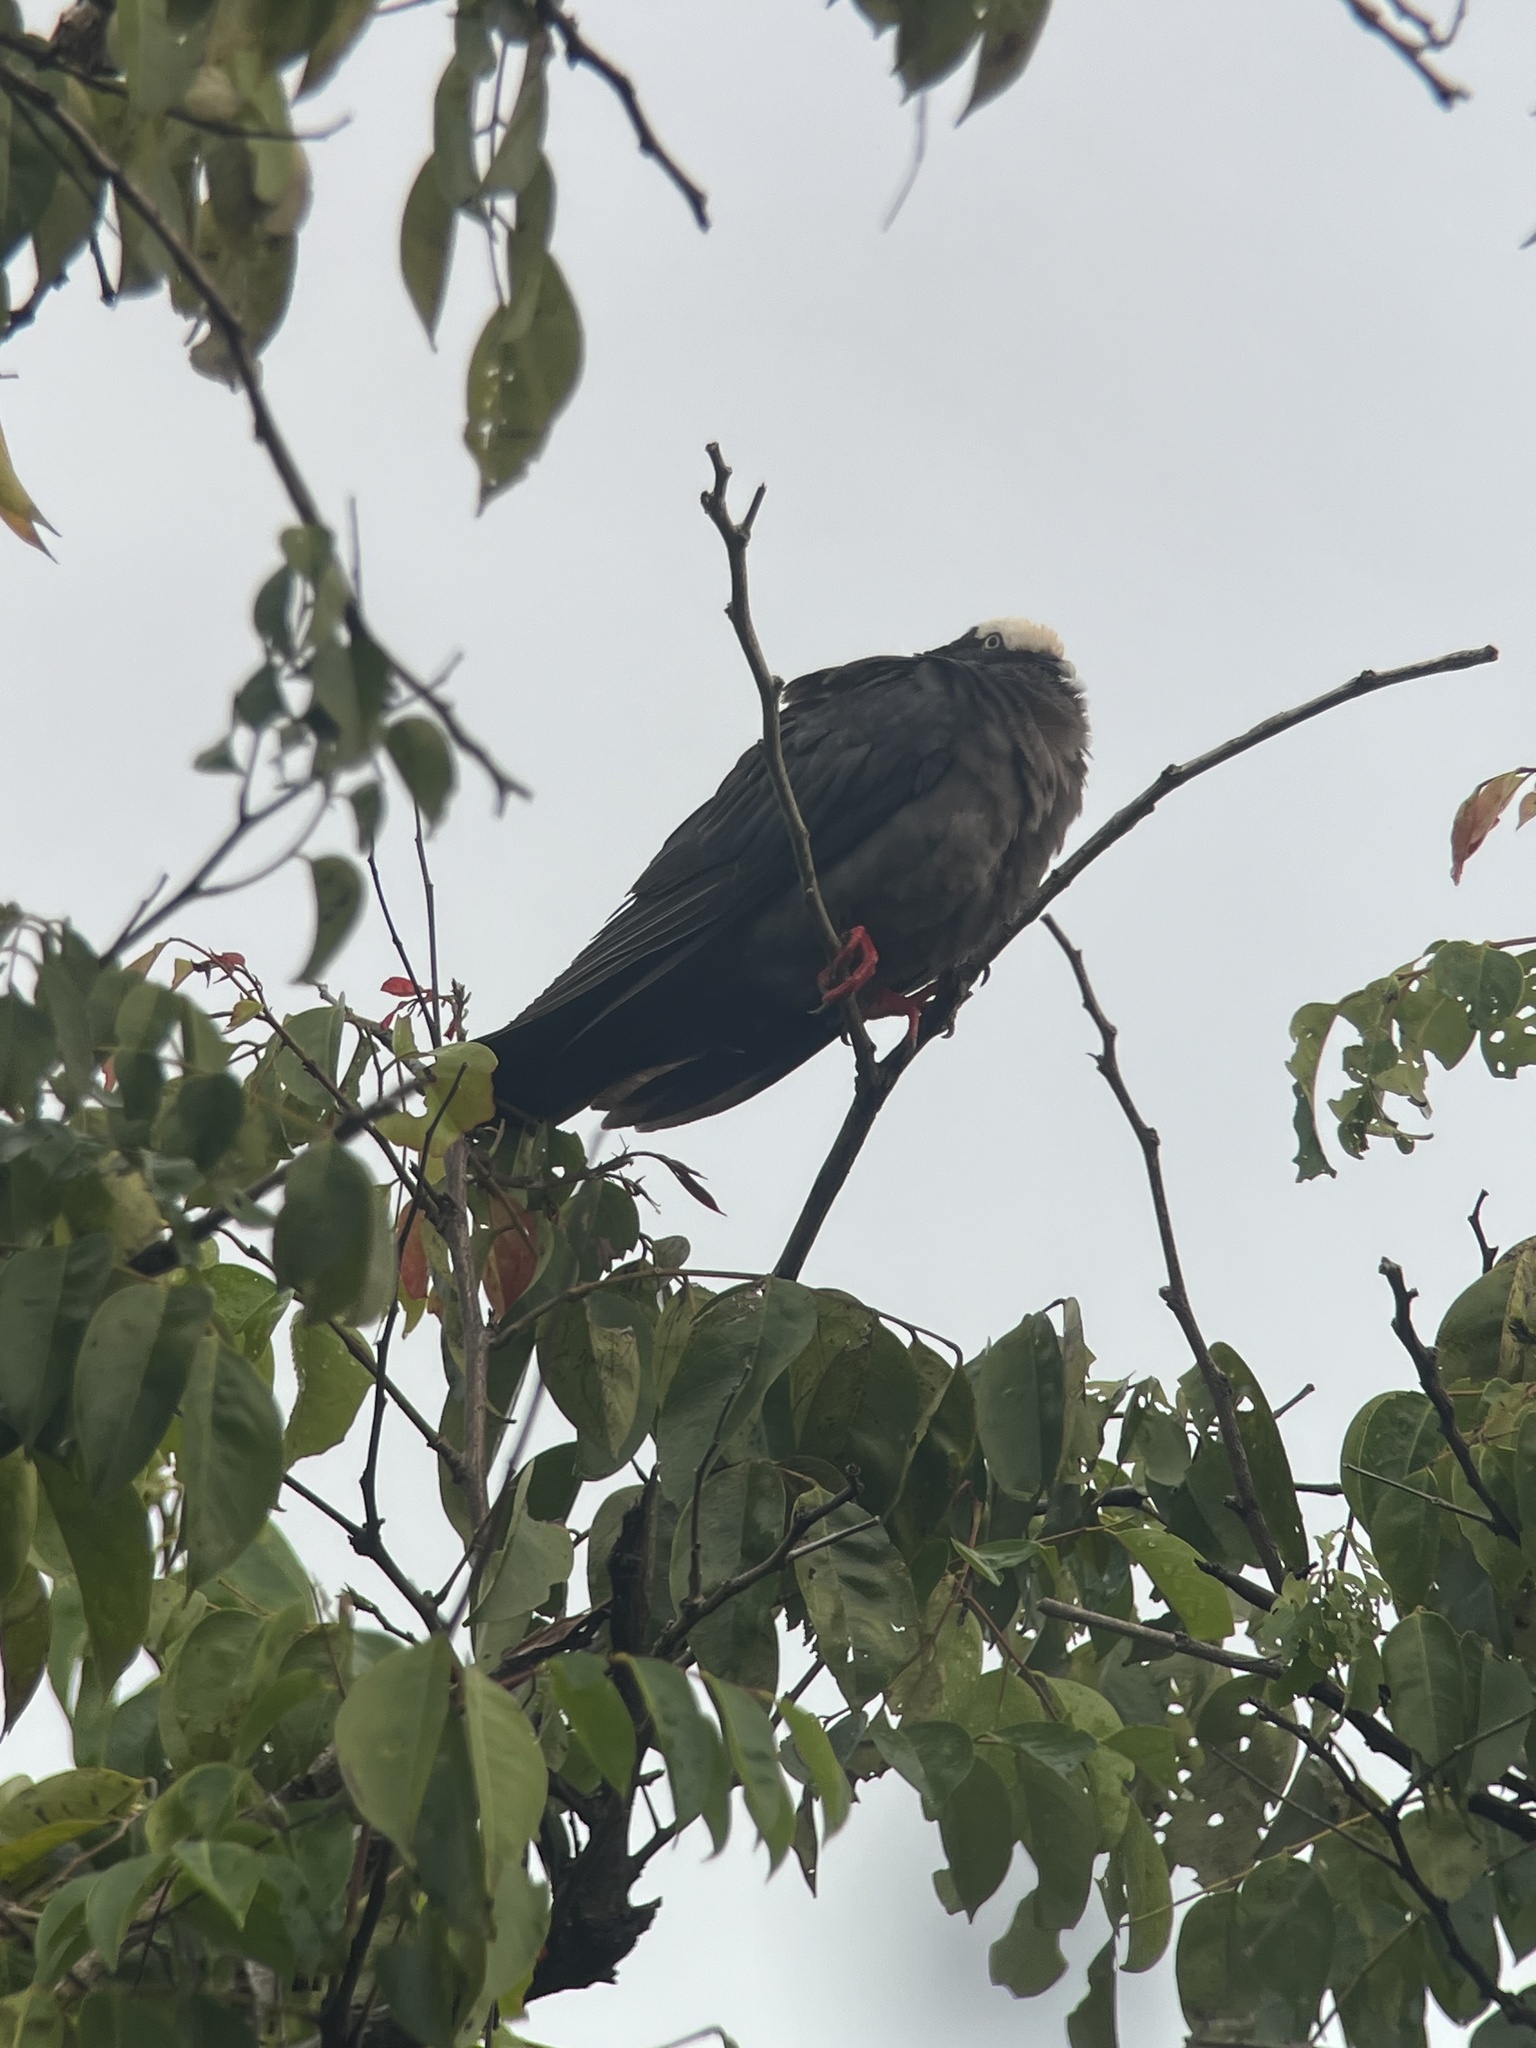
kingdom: Animalia
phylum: Chordata
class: Aves
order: Columbiformes
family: Columbidae
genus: Patagioenas
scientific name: Patagioenas leucocephala
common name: White-crowned pigeon
